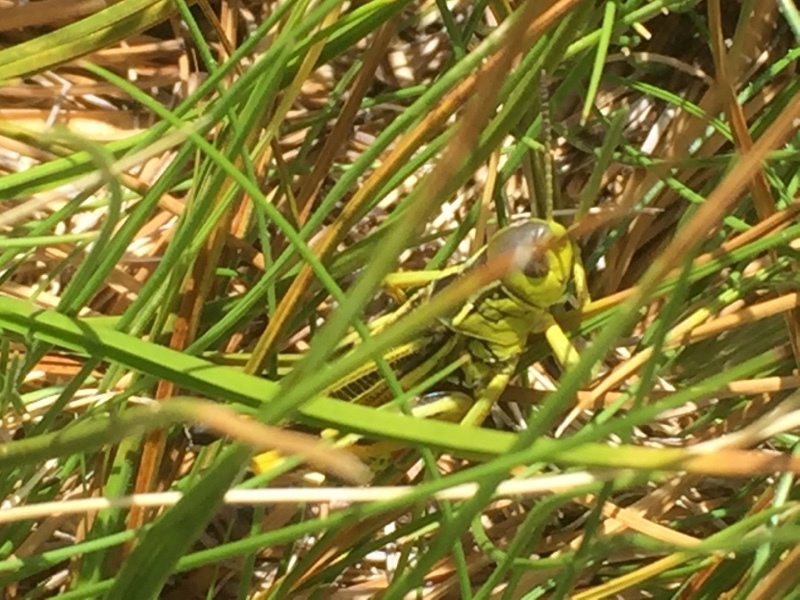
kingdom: Animalia
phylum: Arthropoda
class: Insecta
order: Orthoptera
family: Acrididae
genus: Arcyptera
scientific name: Arcyptera tornosi
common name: Iberian banded grasshopper
